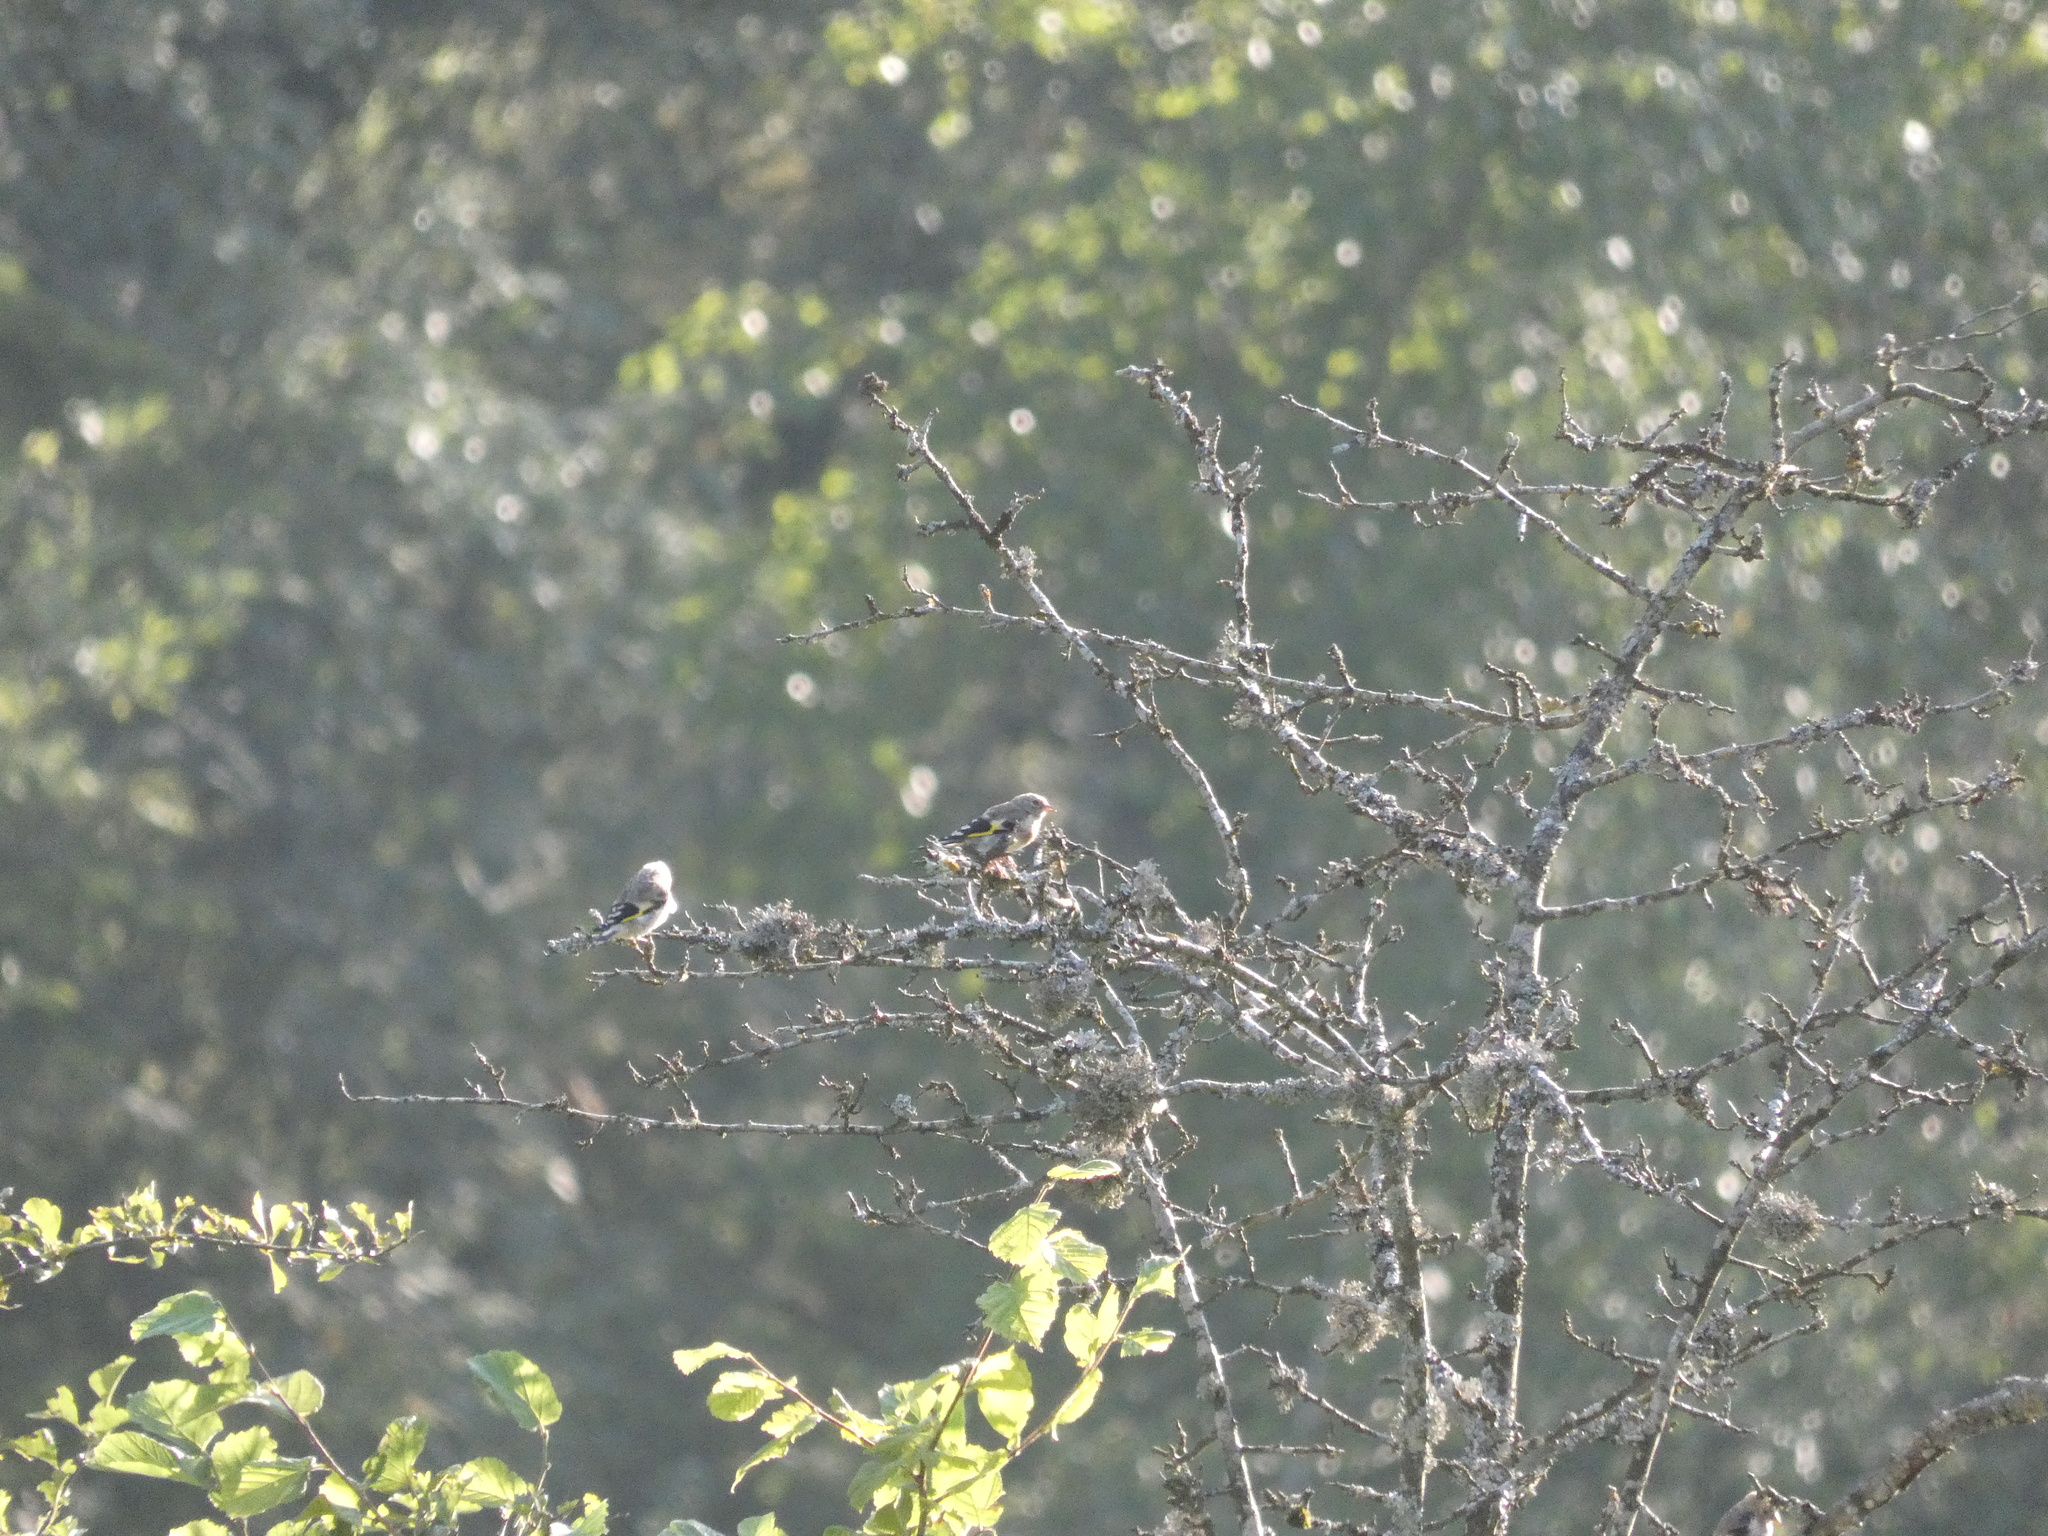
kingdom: Animalia
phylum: Chordata
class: Aves
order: Passeriformes
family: Fringillidae
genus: Carduelis
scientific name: Carduelis carduelis
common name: European goldfinch
